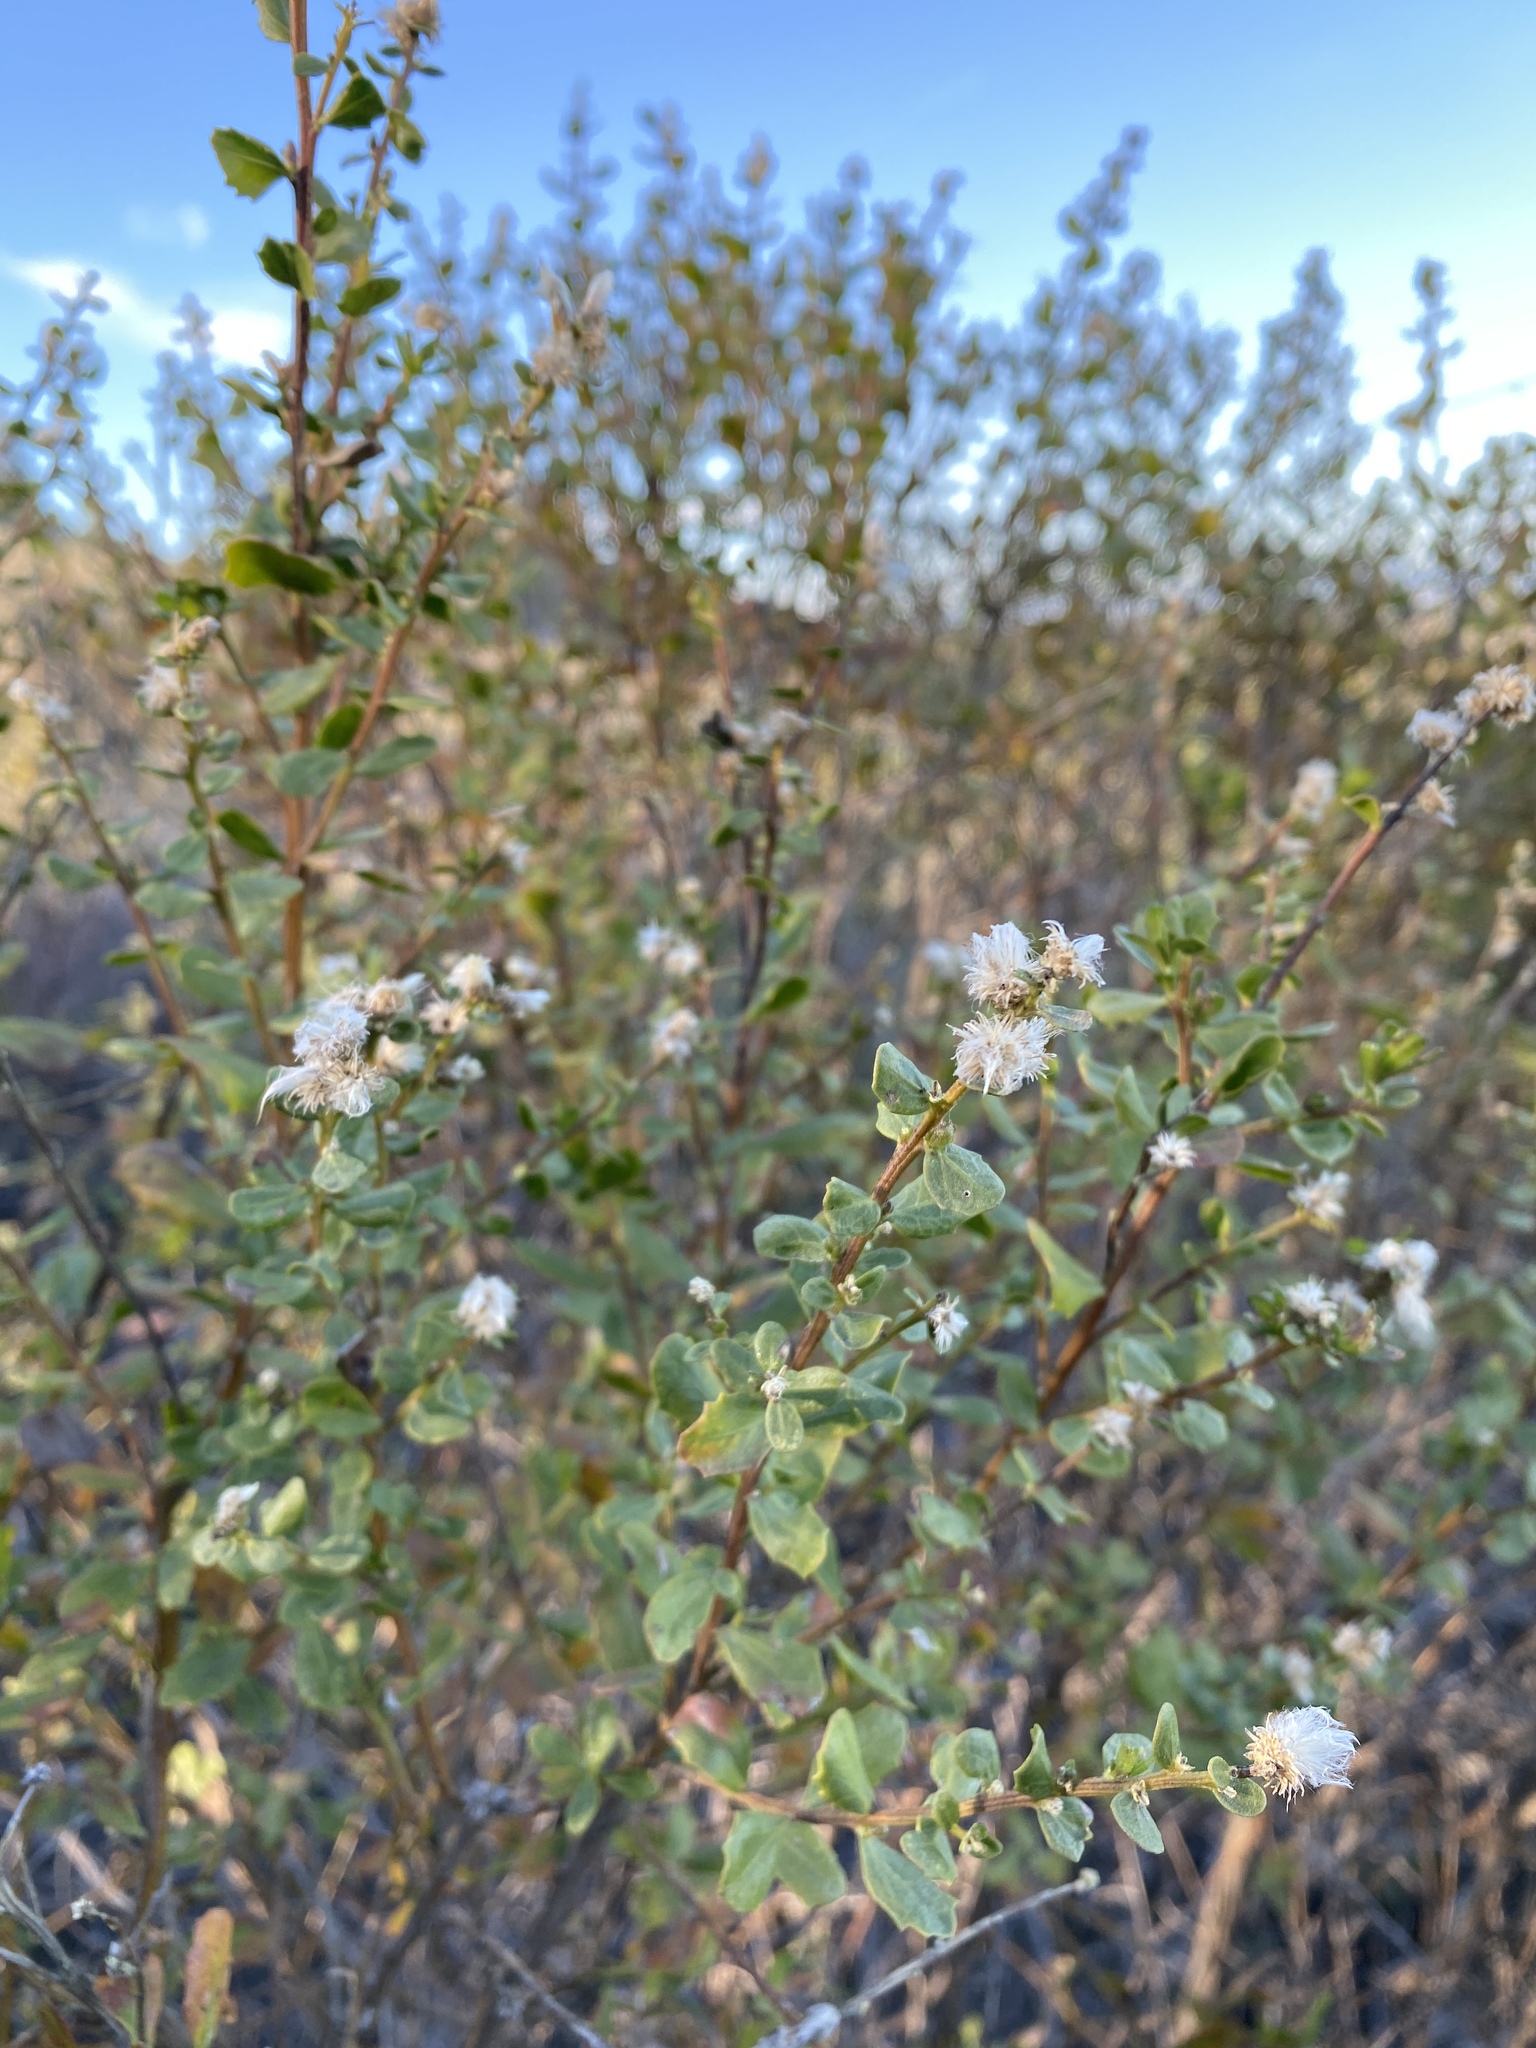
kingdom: Plantae
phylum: Tracheophyta
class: Magnoliopsida
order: Asterales
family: Asteraceae
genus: Baccharis
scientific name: Baccharis pilularis
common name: Coyotebrush
